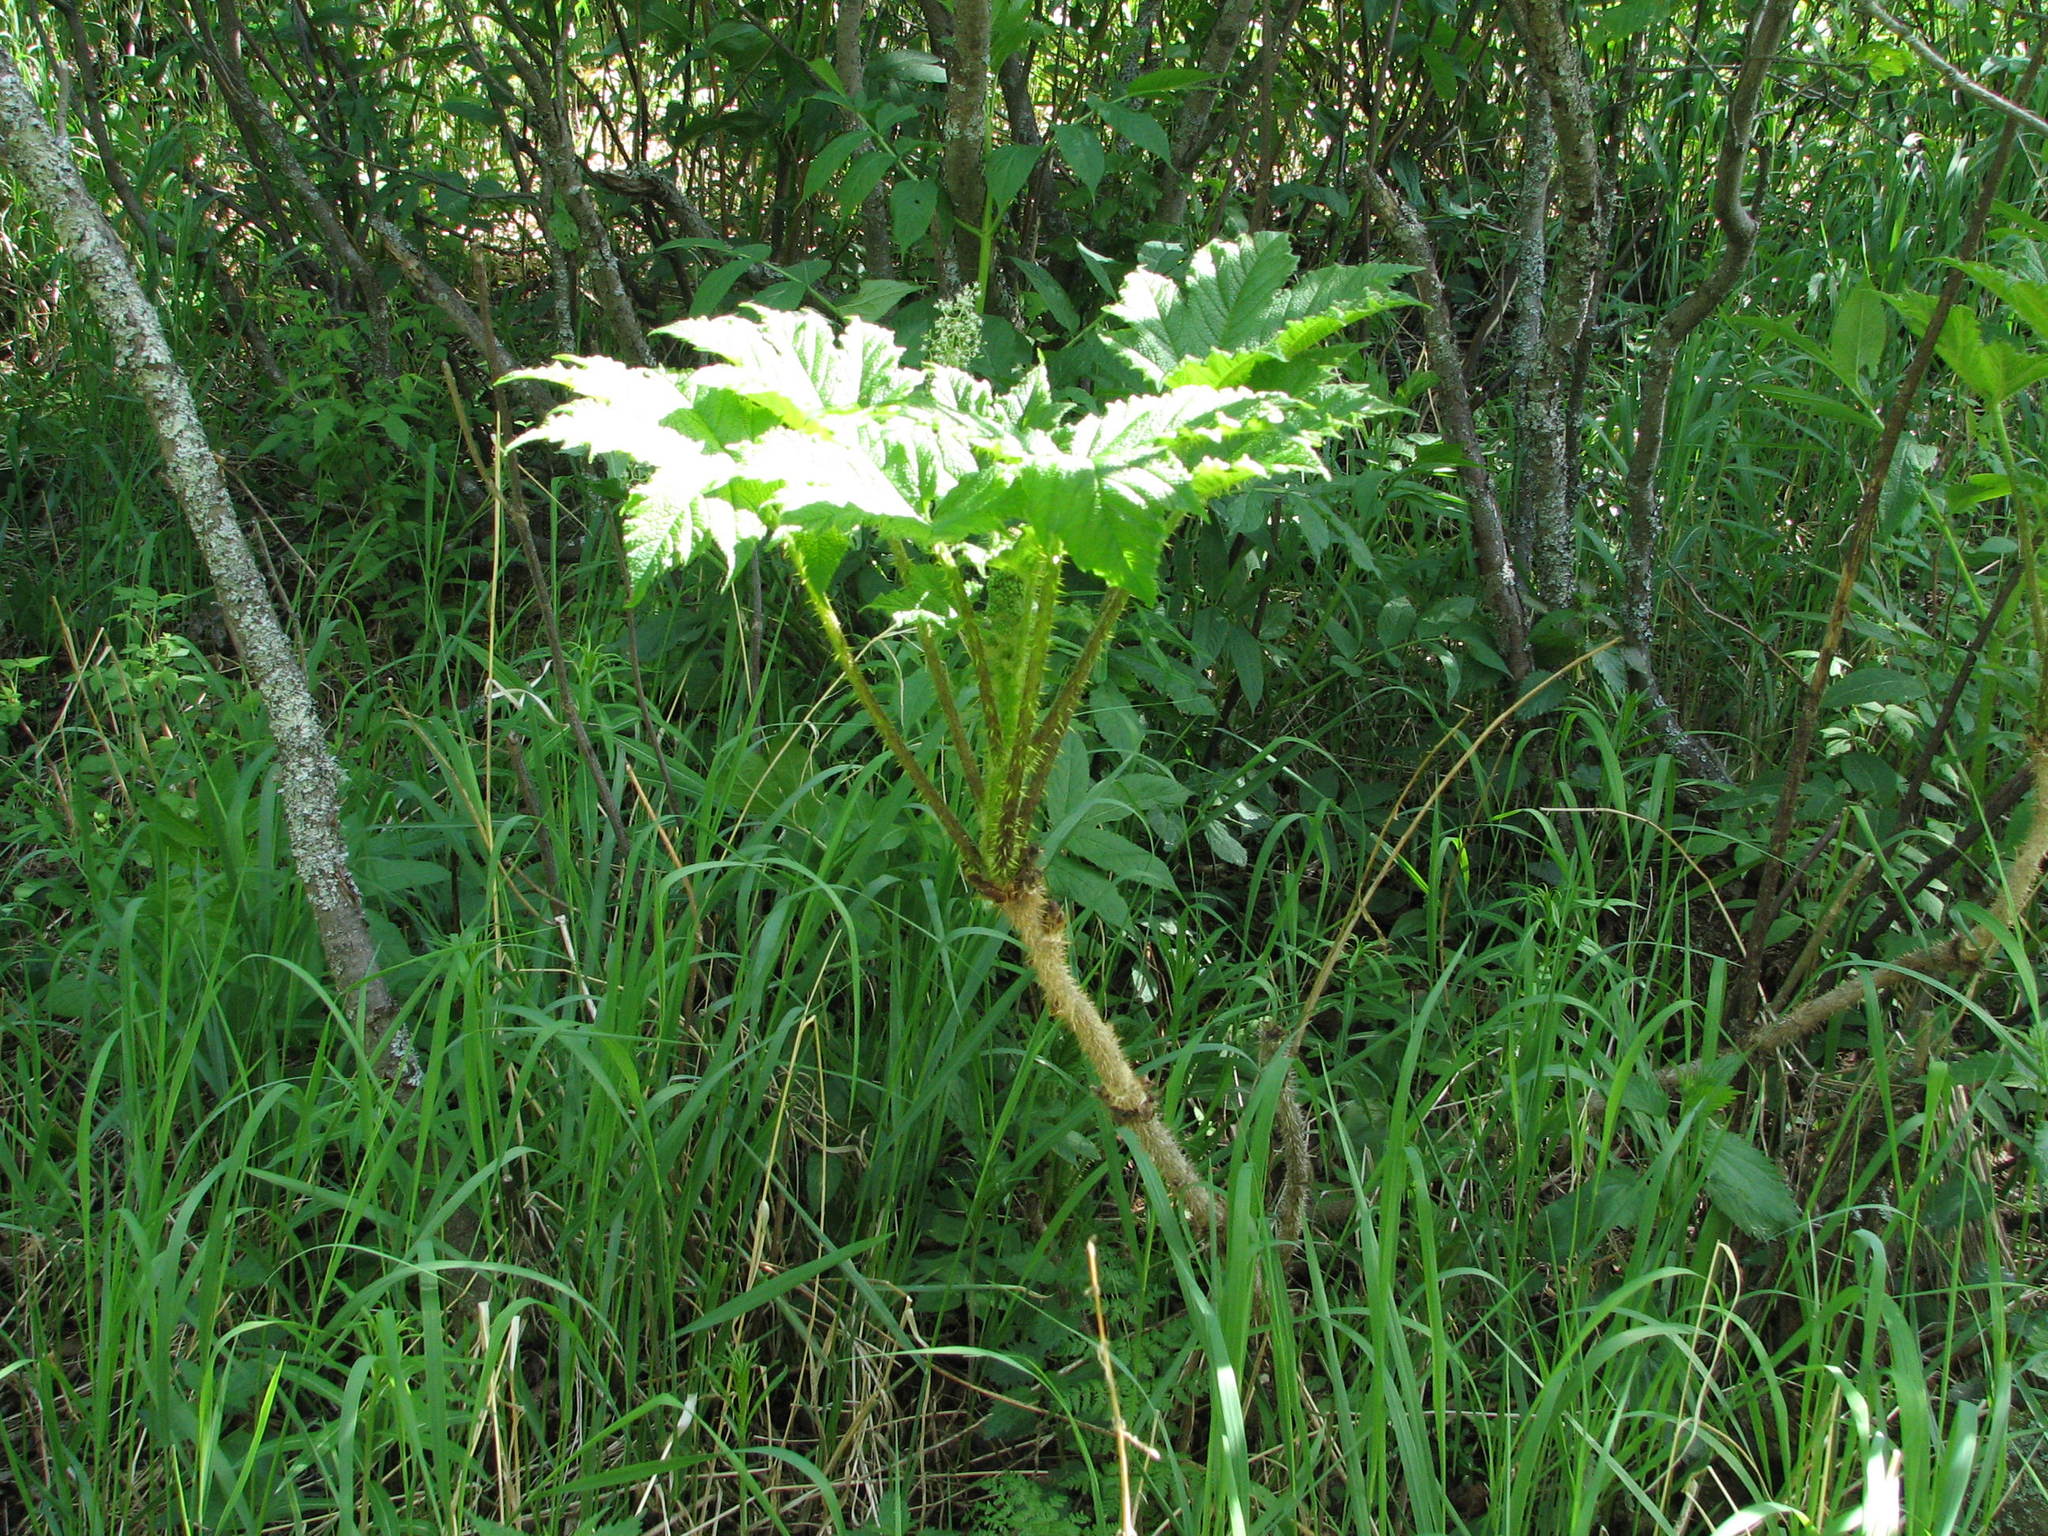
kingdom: Plantae
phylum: Tracheophyta
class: Magnoliopsida
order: Apiales
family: Araliaceae
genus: Oplopanax
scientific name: Oplopanax horridus
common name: Devil's walking-stick
